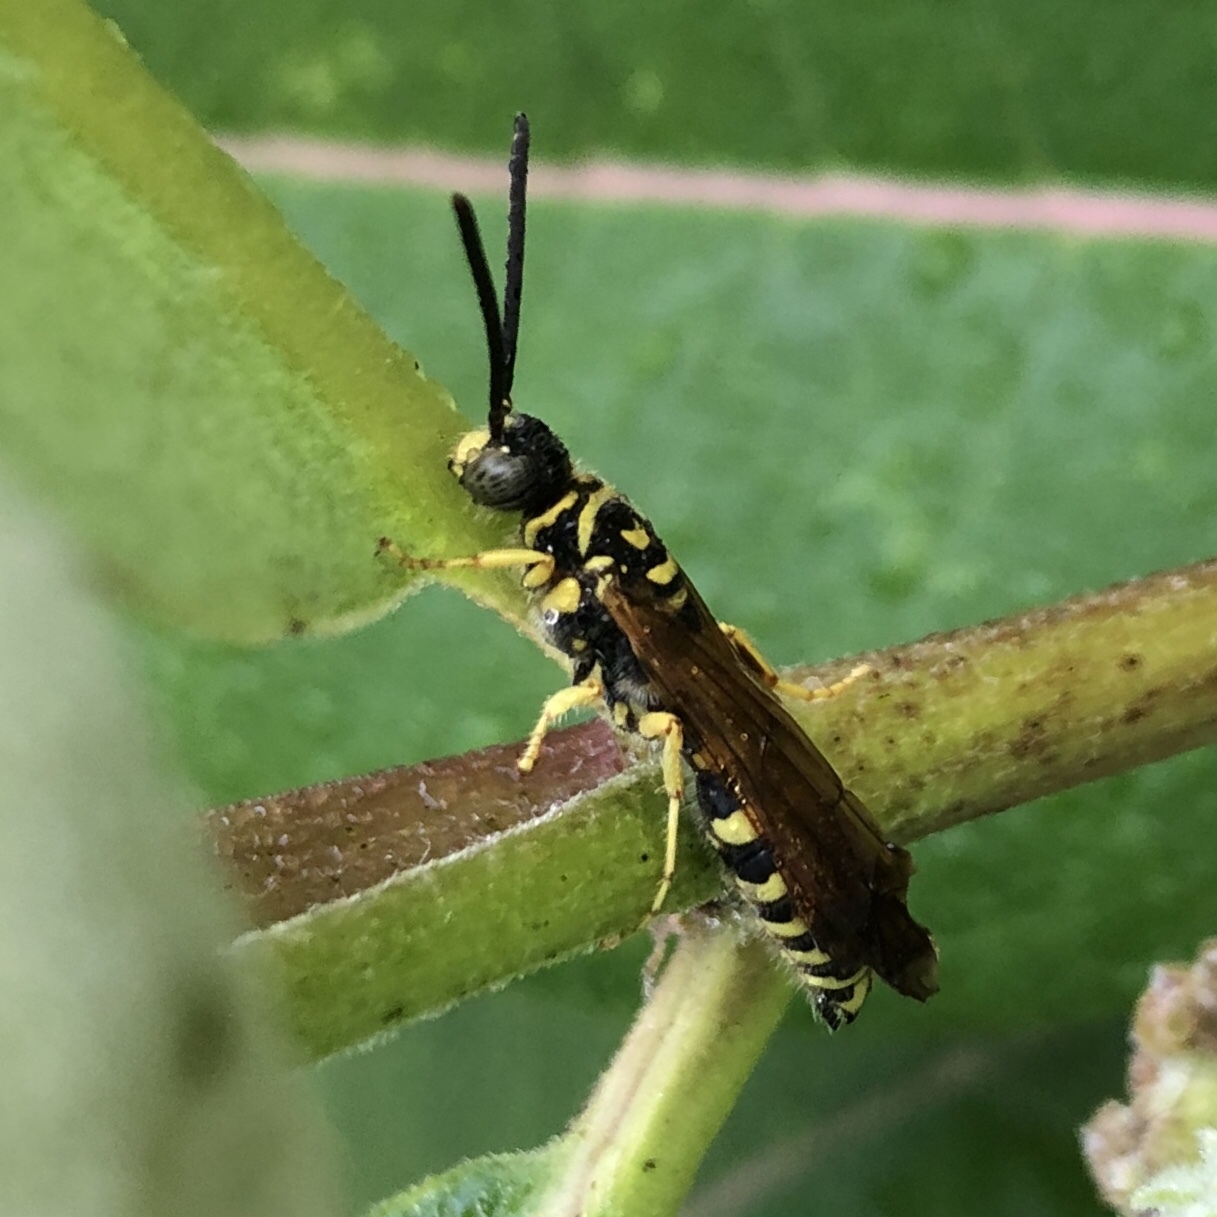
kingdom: Animalia
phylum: Arthropoda
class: Insecta
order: Hymenoptera
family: Tiphiidae
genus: Myzinum
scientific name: Myzinum quinquecinctum
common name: Five-banded thynnid wasp
